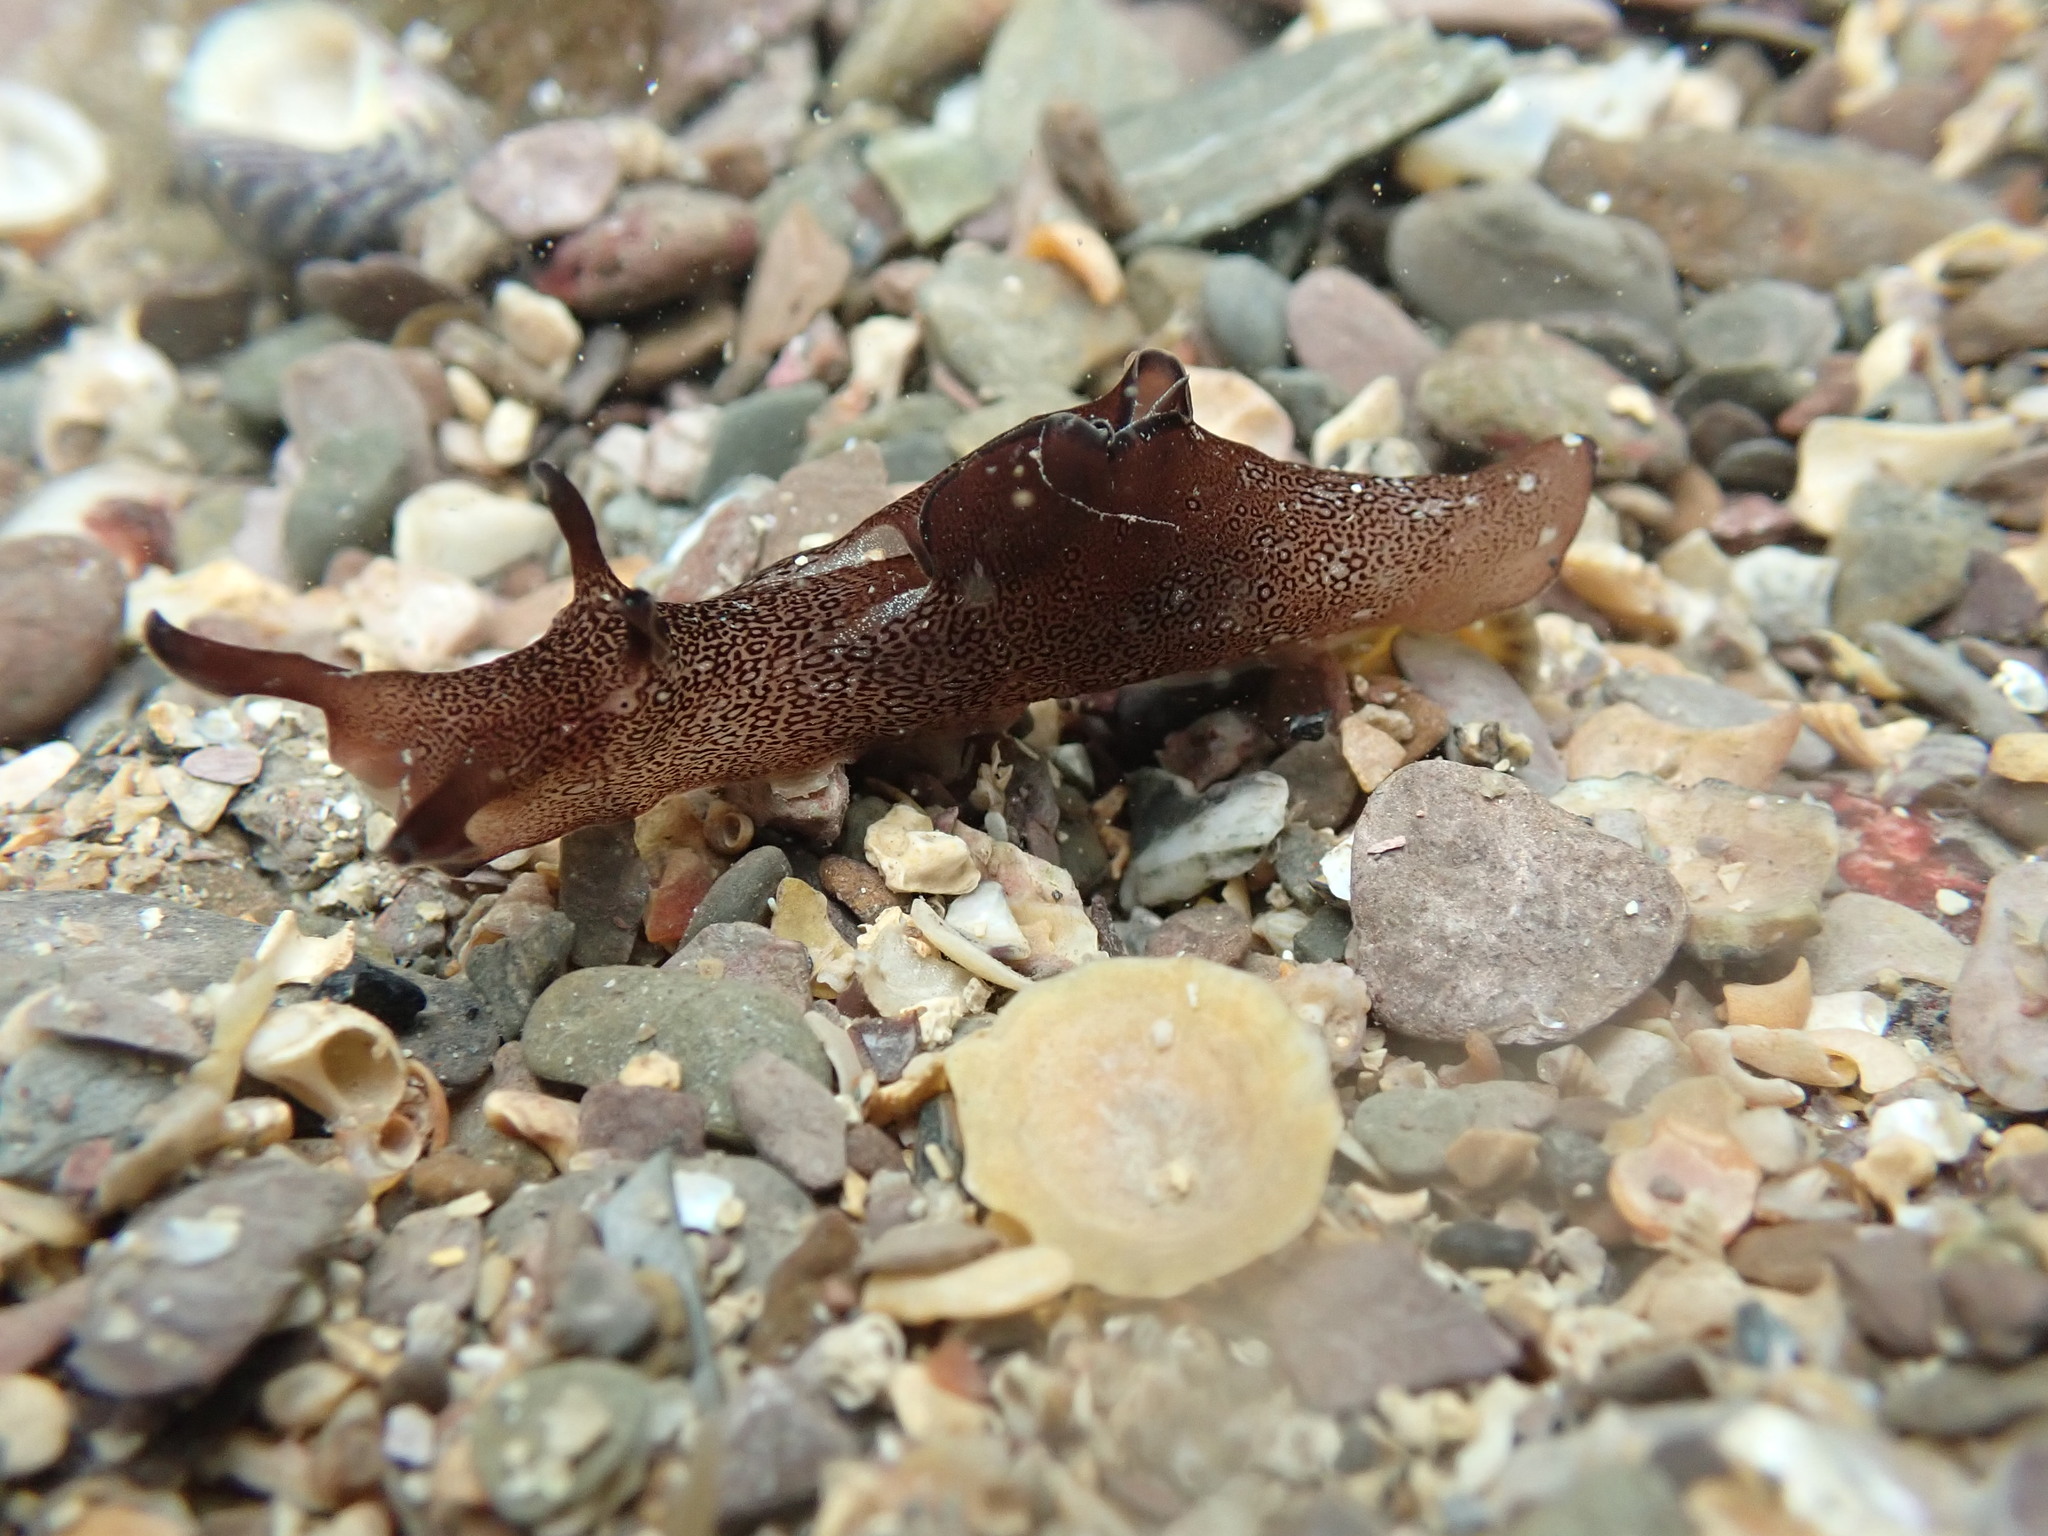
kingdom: Animalia
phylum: Mollusca
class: Gastropoda
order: Aplysiida
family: Aplysiidae
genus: Aplysia
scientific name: Aplysia punctata
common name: Common sea hare
